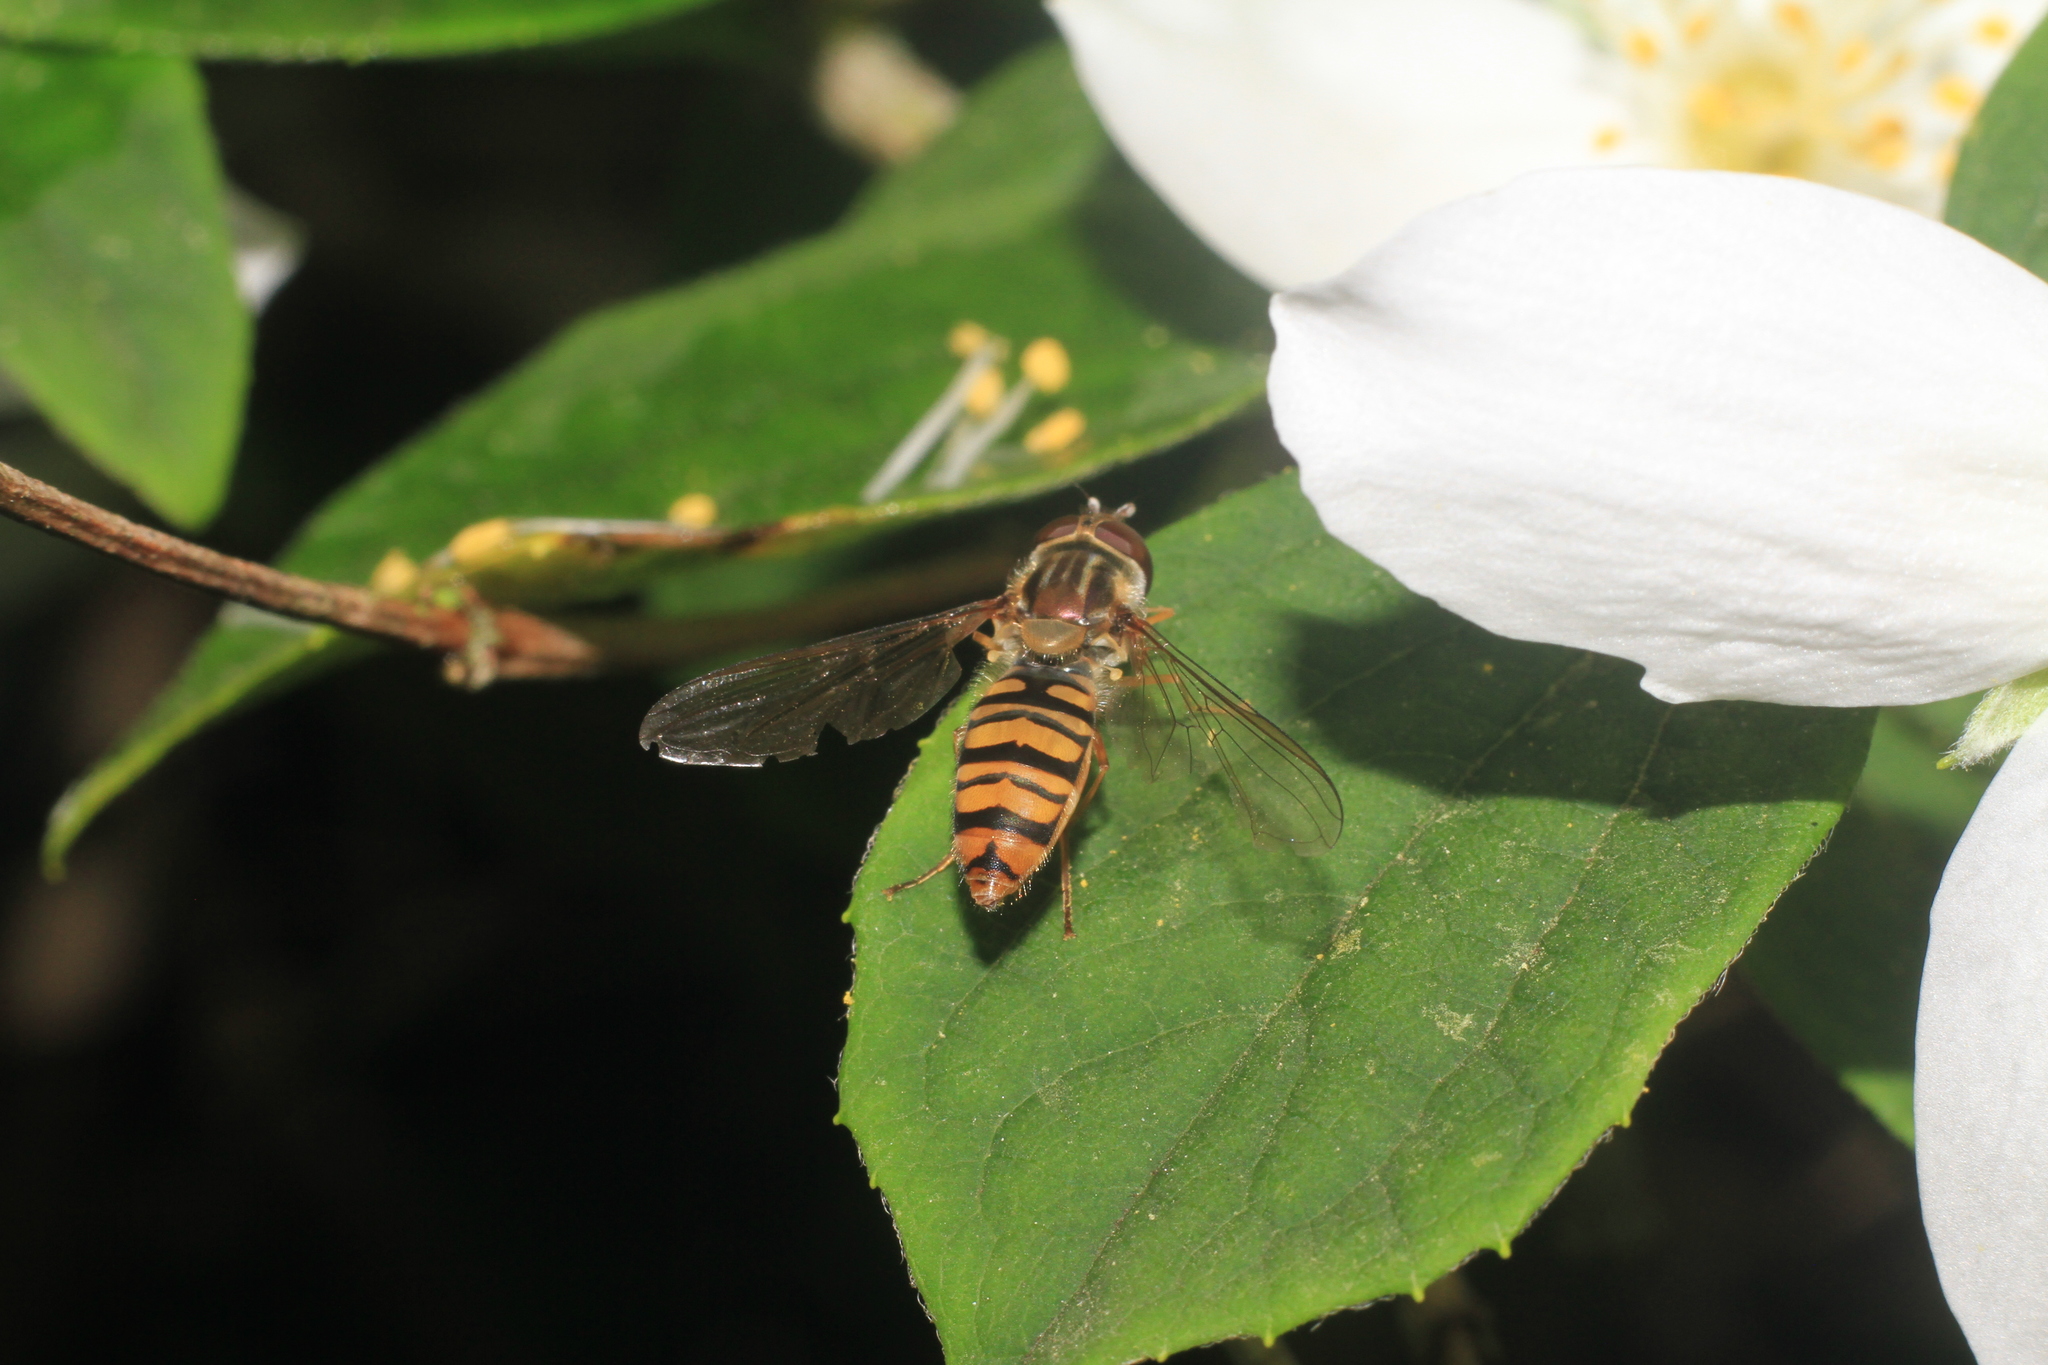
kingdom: Animalia
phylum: Arthropoda
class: Insecta
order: Diptera
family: Syrphidae
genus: Episyrphus
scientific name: Episyrphus balteatus
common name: Marmalade hoverfly
